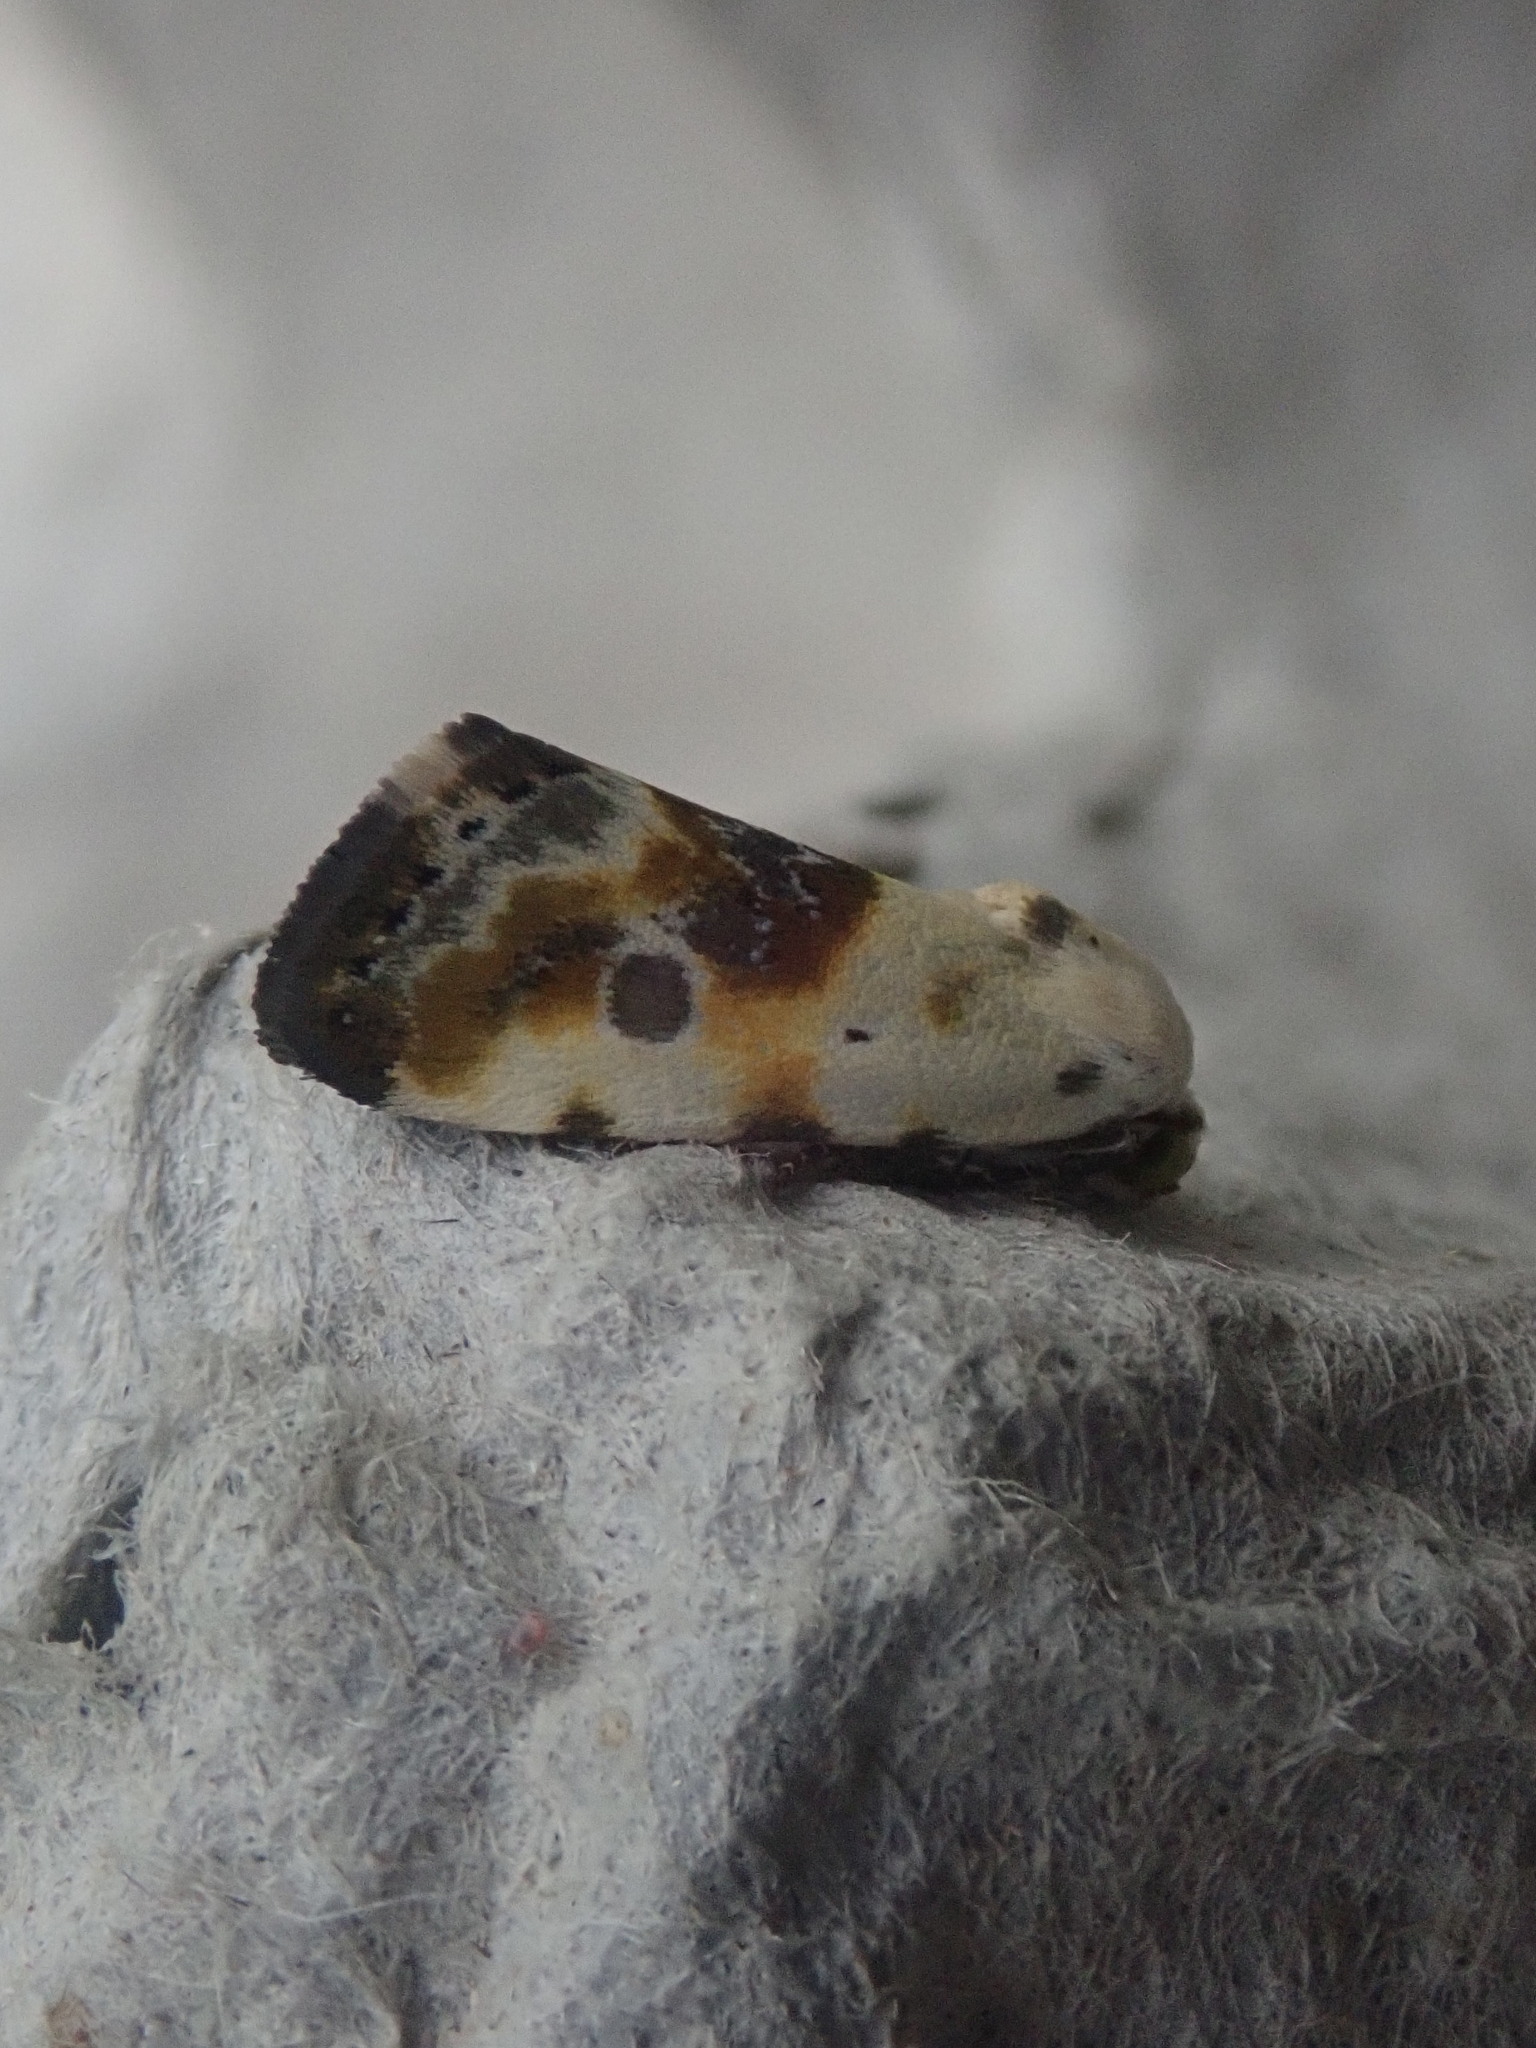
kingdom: Animalia
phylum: Arthropoda
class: Insecta
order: Lepidoptera
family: Noctuidae
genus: Acontia
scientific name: Acontia candefacta
